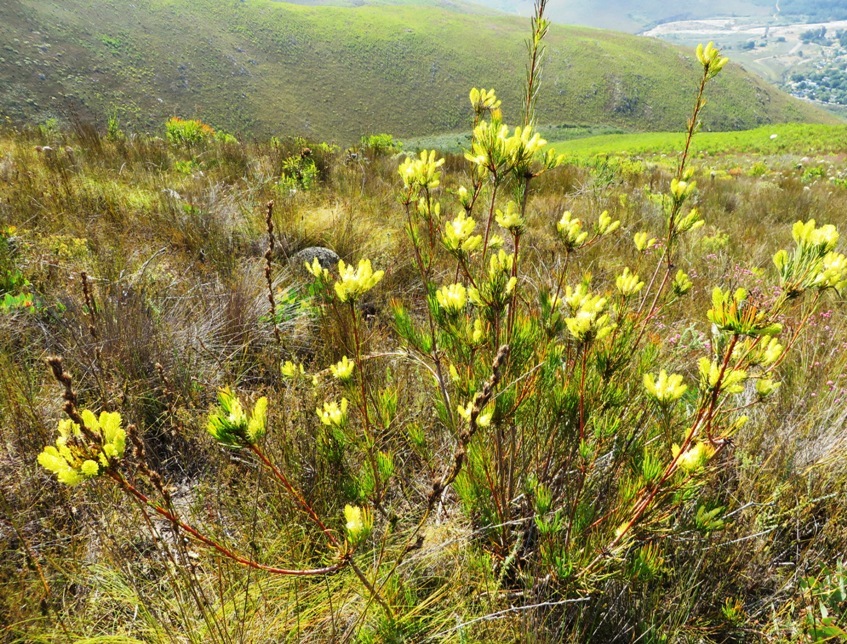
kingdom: Plantae
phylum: Tracheophyta
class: Magnoliopsida
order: Proteales
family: Proteaceae
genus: Aulax
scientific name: Aulax pallasia
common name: Needle-leaf featherbush
